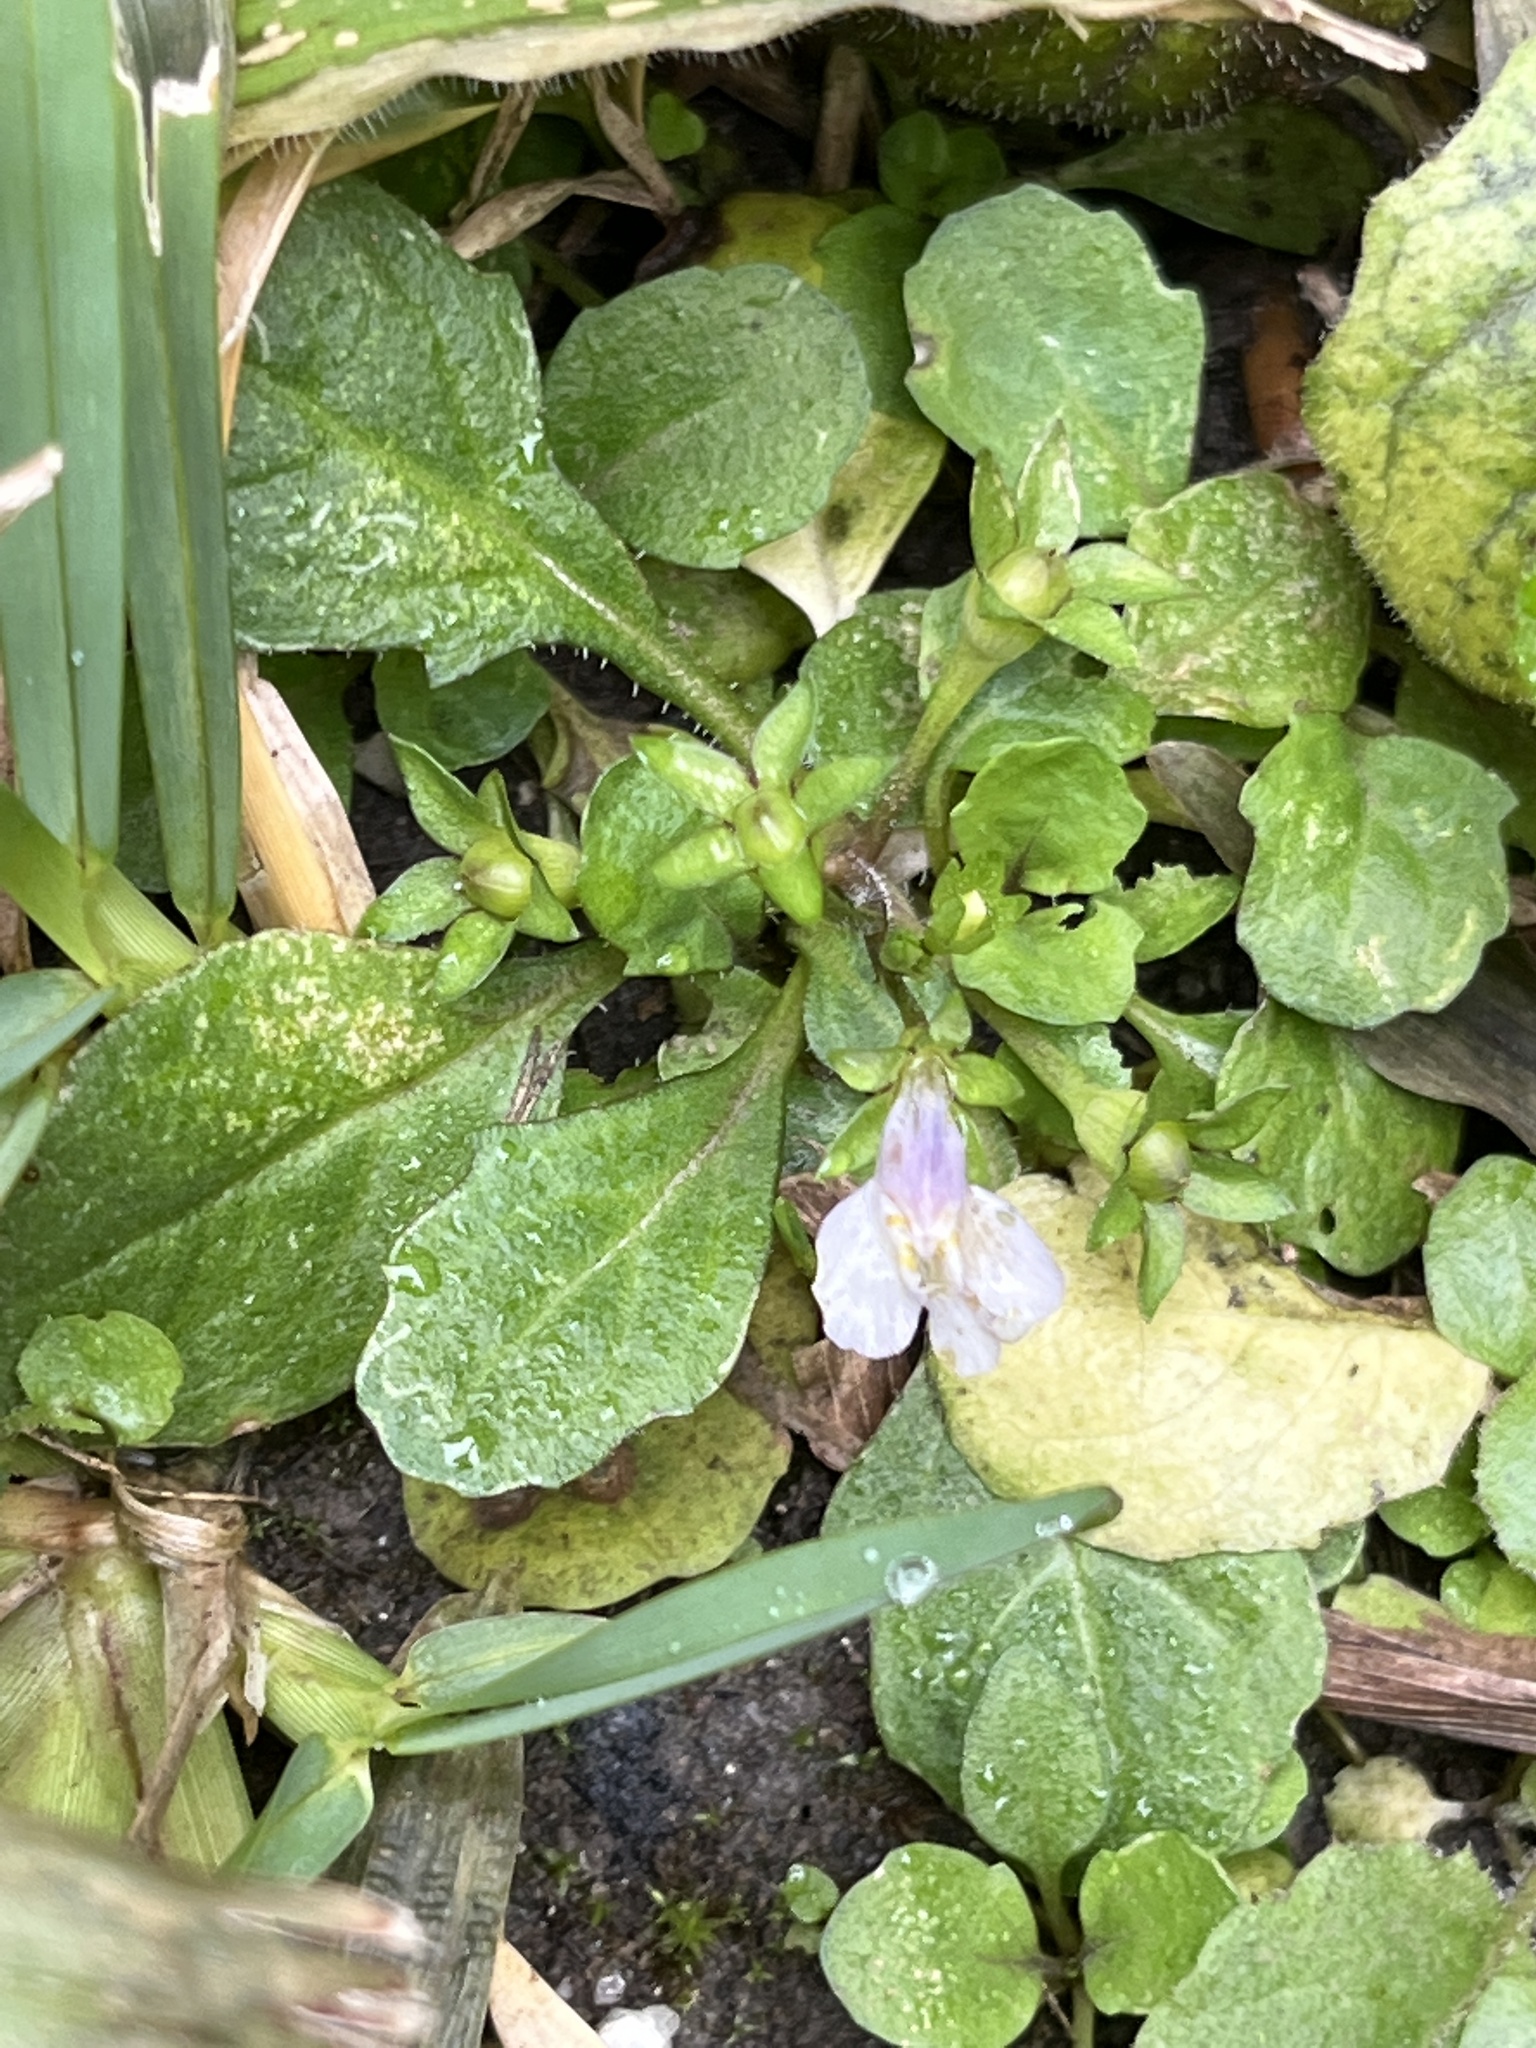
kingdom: Plantae
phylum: Tracheophyta
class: Magnoliopsida
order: Lamiales
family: Mazaceae
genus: Mazus
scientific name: Mazus pumilus
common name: Japanese mazus
